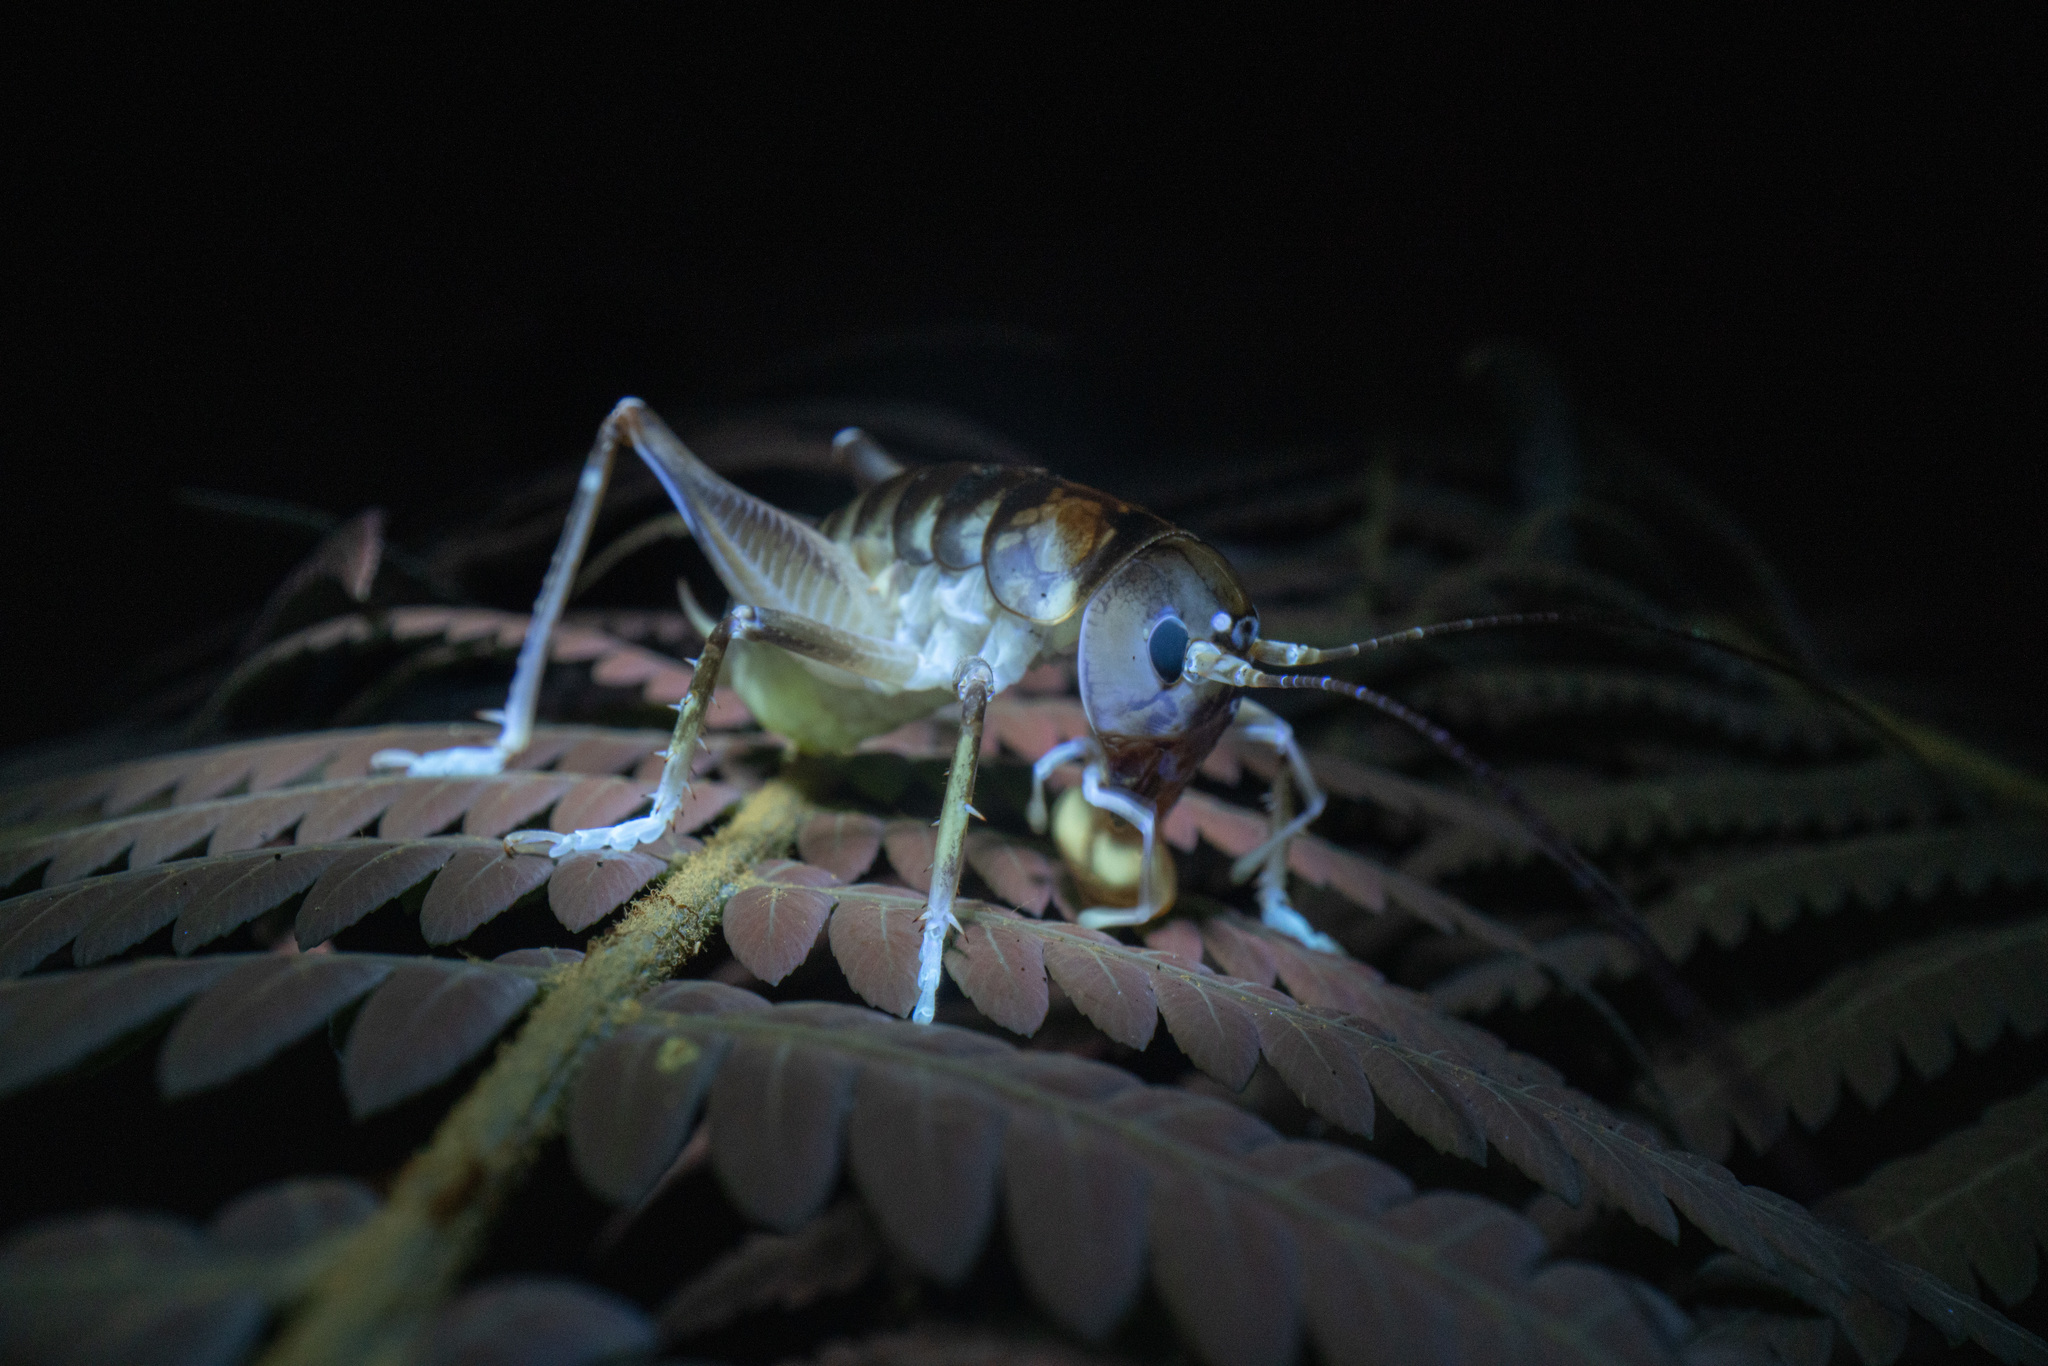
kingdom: Animalia
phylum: Arthropoda
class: Insecta
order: Orthoptera
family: Anostostomatidae
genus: Hemiandrus
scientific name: Hemiandrus pallitarsis
